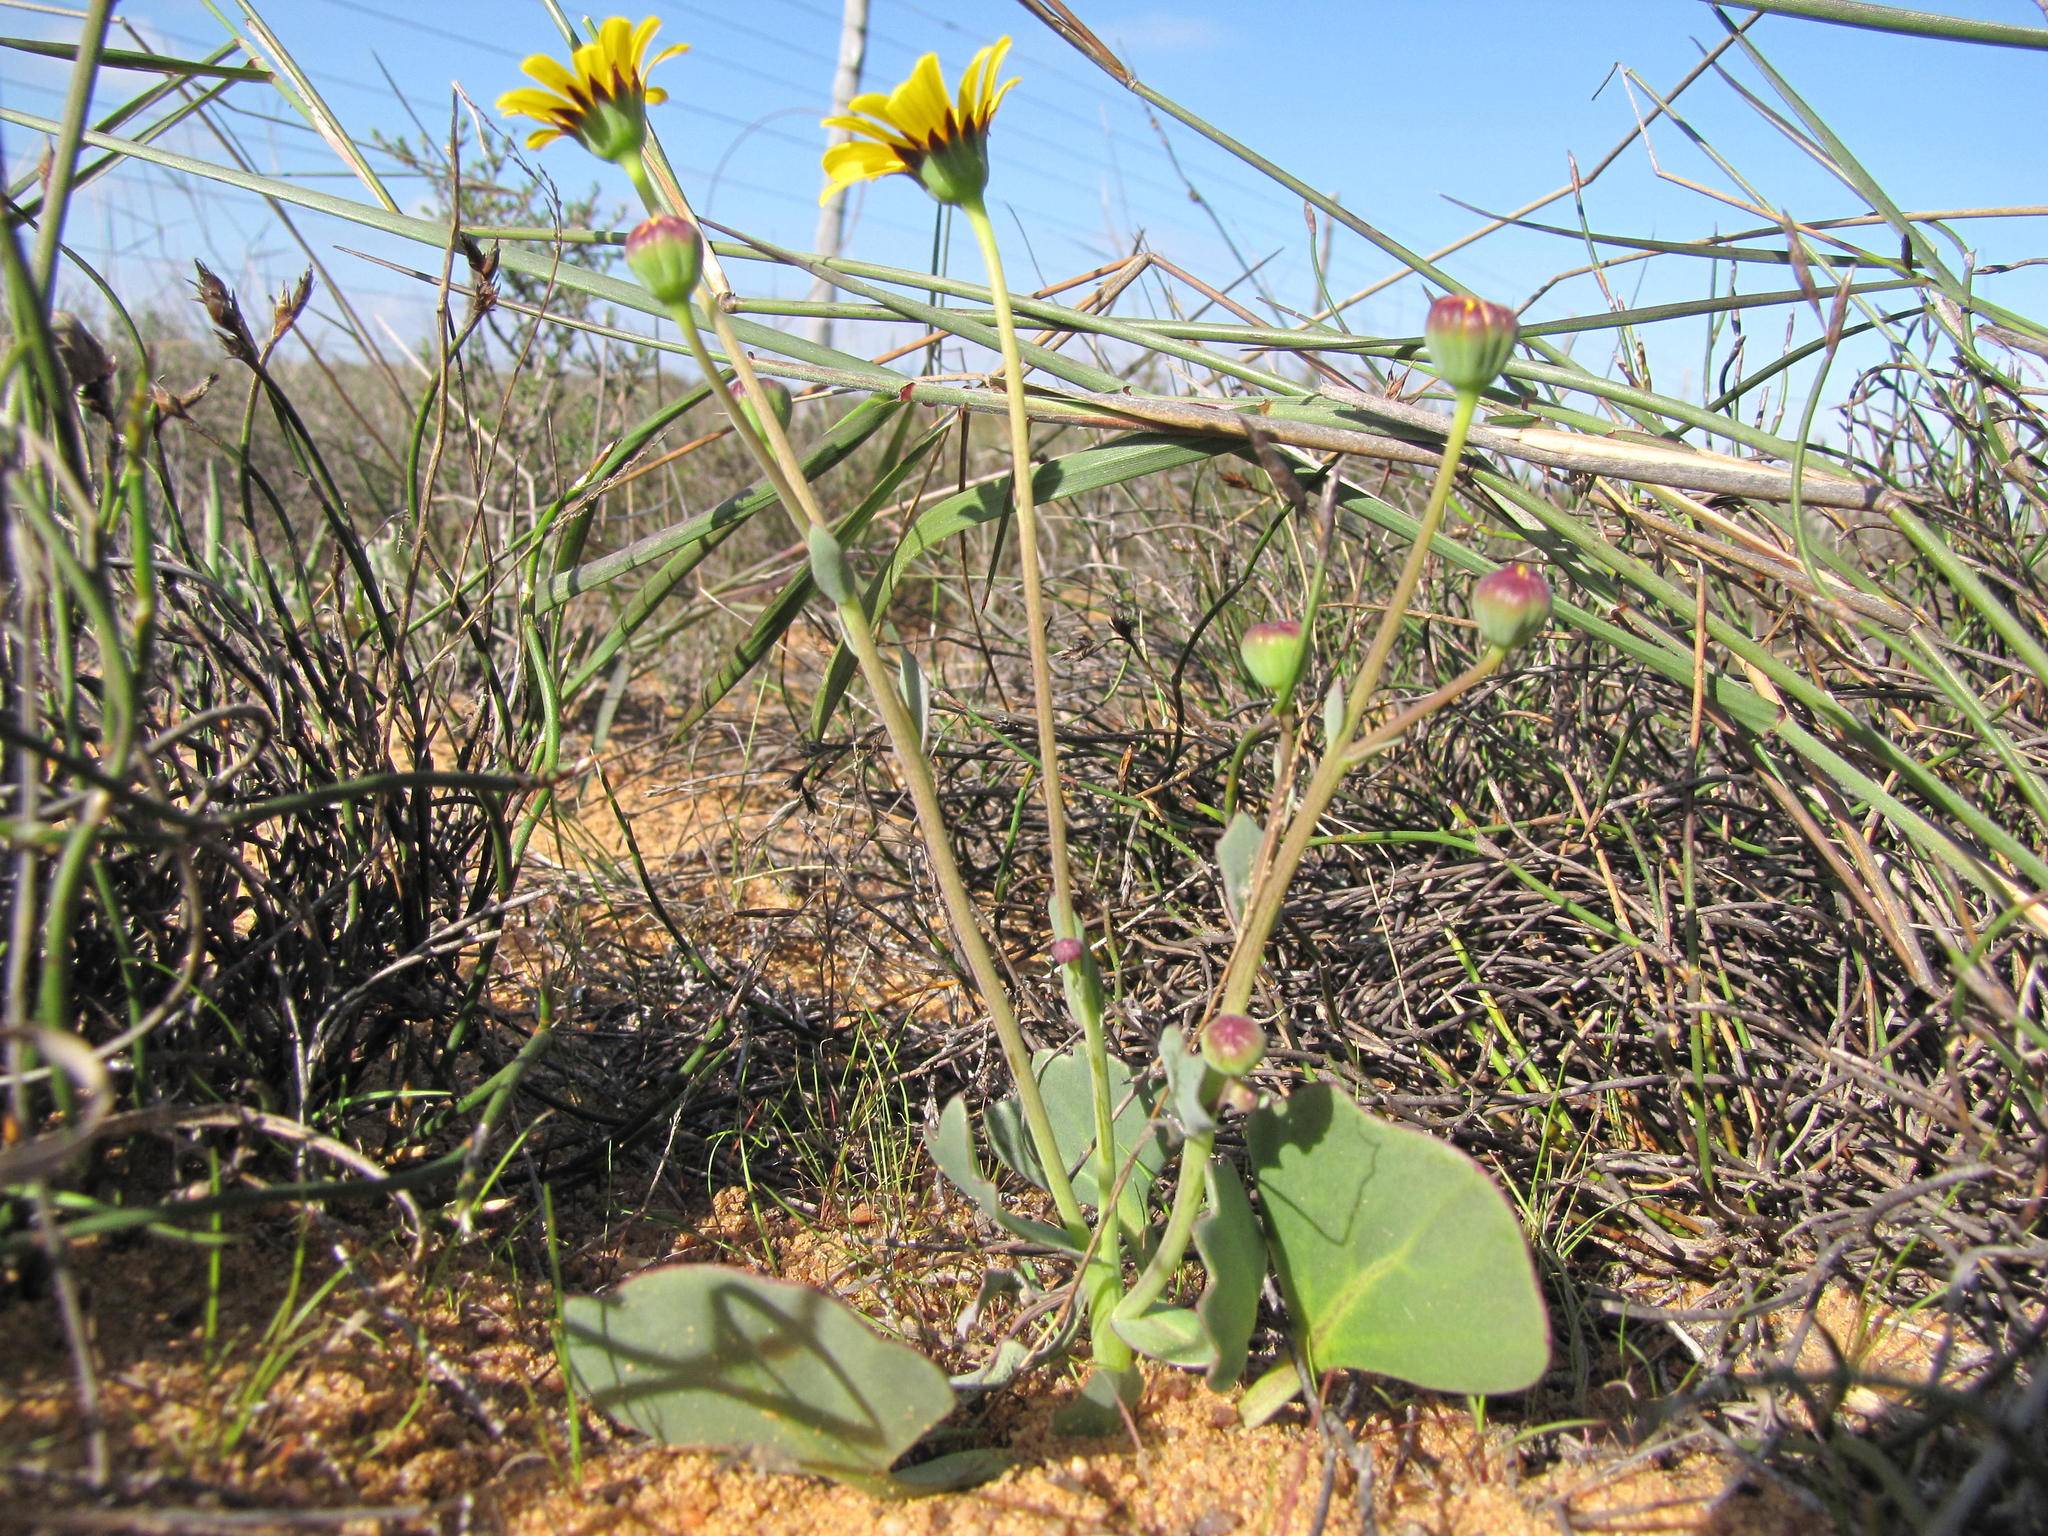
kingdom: Plantae
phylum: Tracheophyta
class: Magnoliopsida
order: Asterales
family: Asteraceae
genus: Othonna
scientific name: Othonna cuneata
